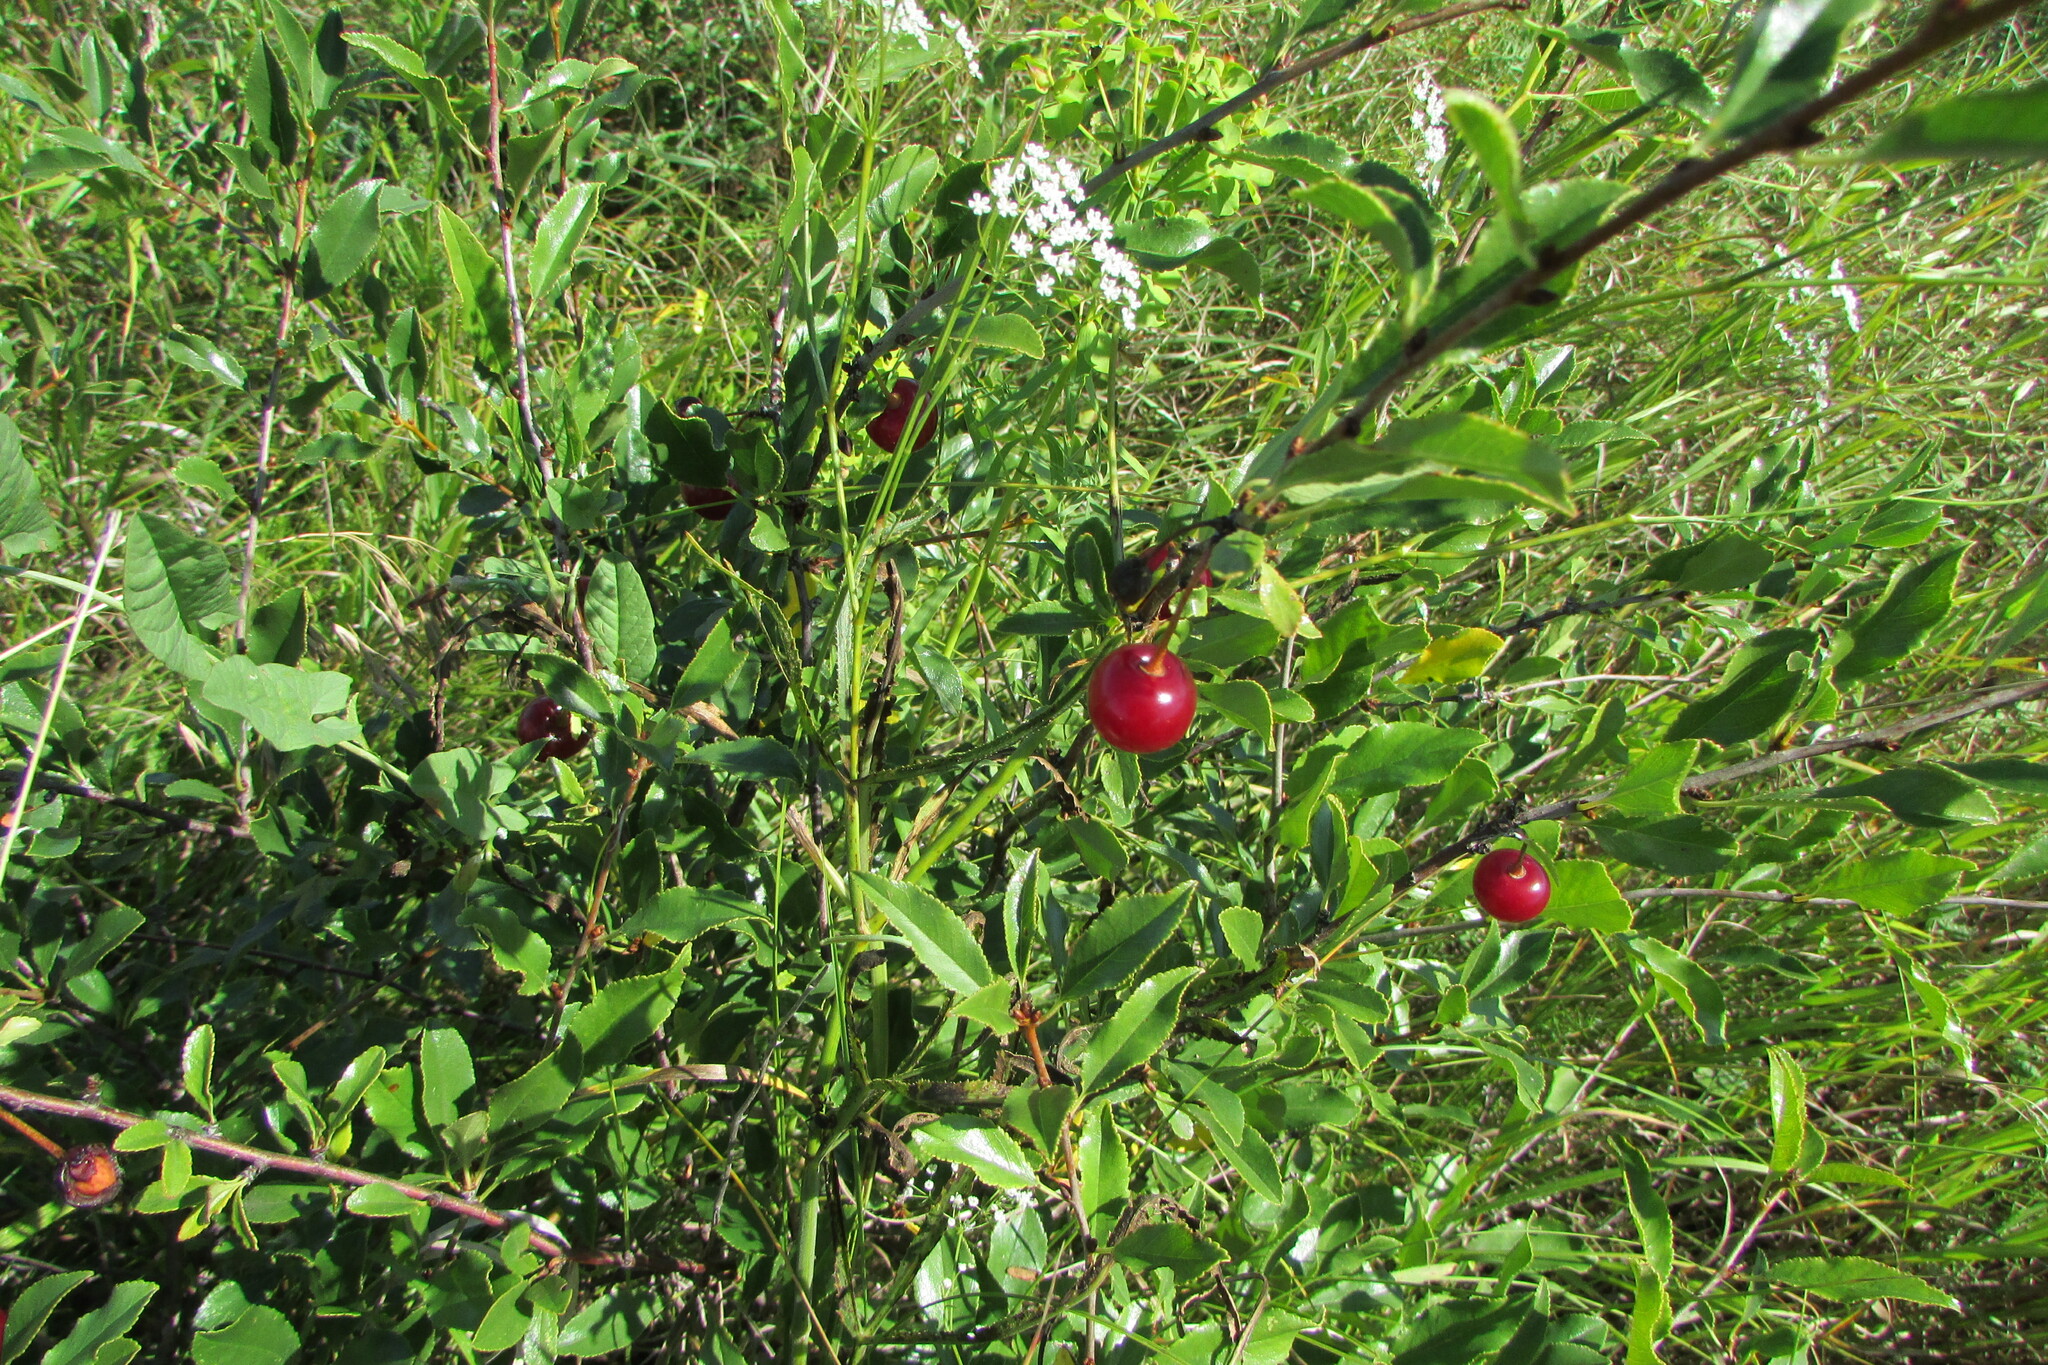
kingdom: Plantae
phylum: Tracheophyta
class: Magnoliopsida
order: Rosales
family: Rosaceae
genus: Prunus
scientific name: Prunus fruticosa
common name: European dwarf cherry
